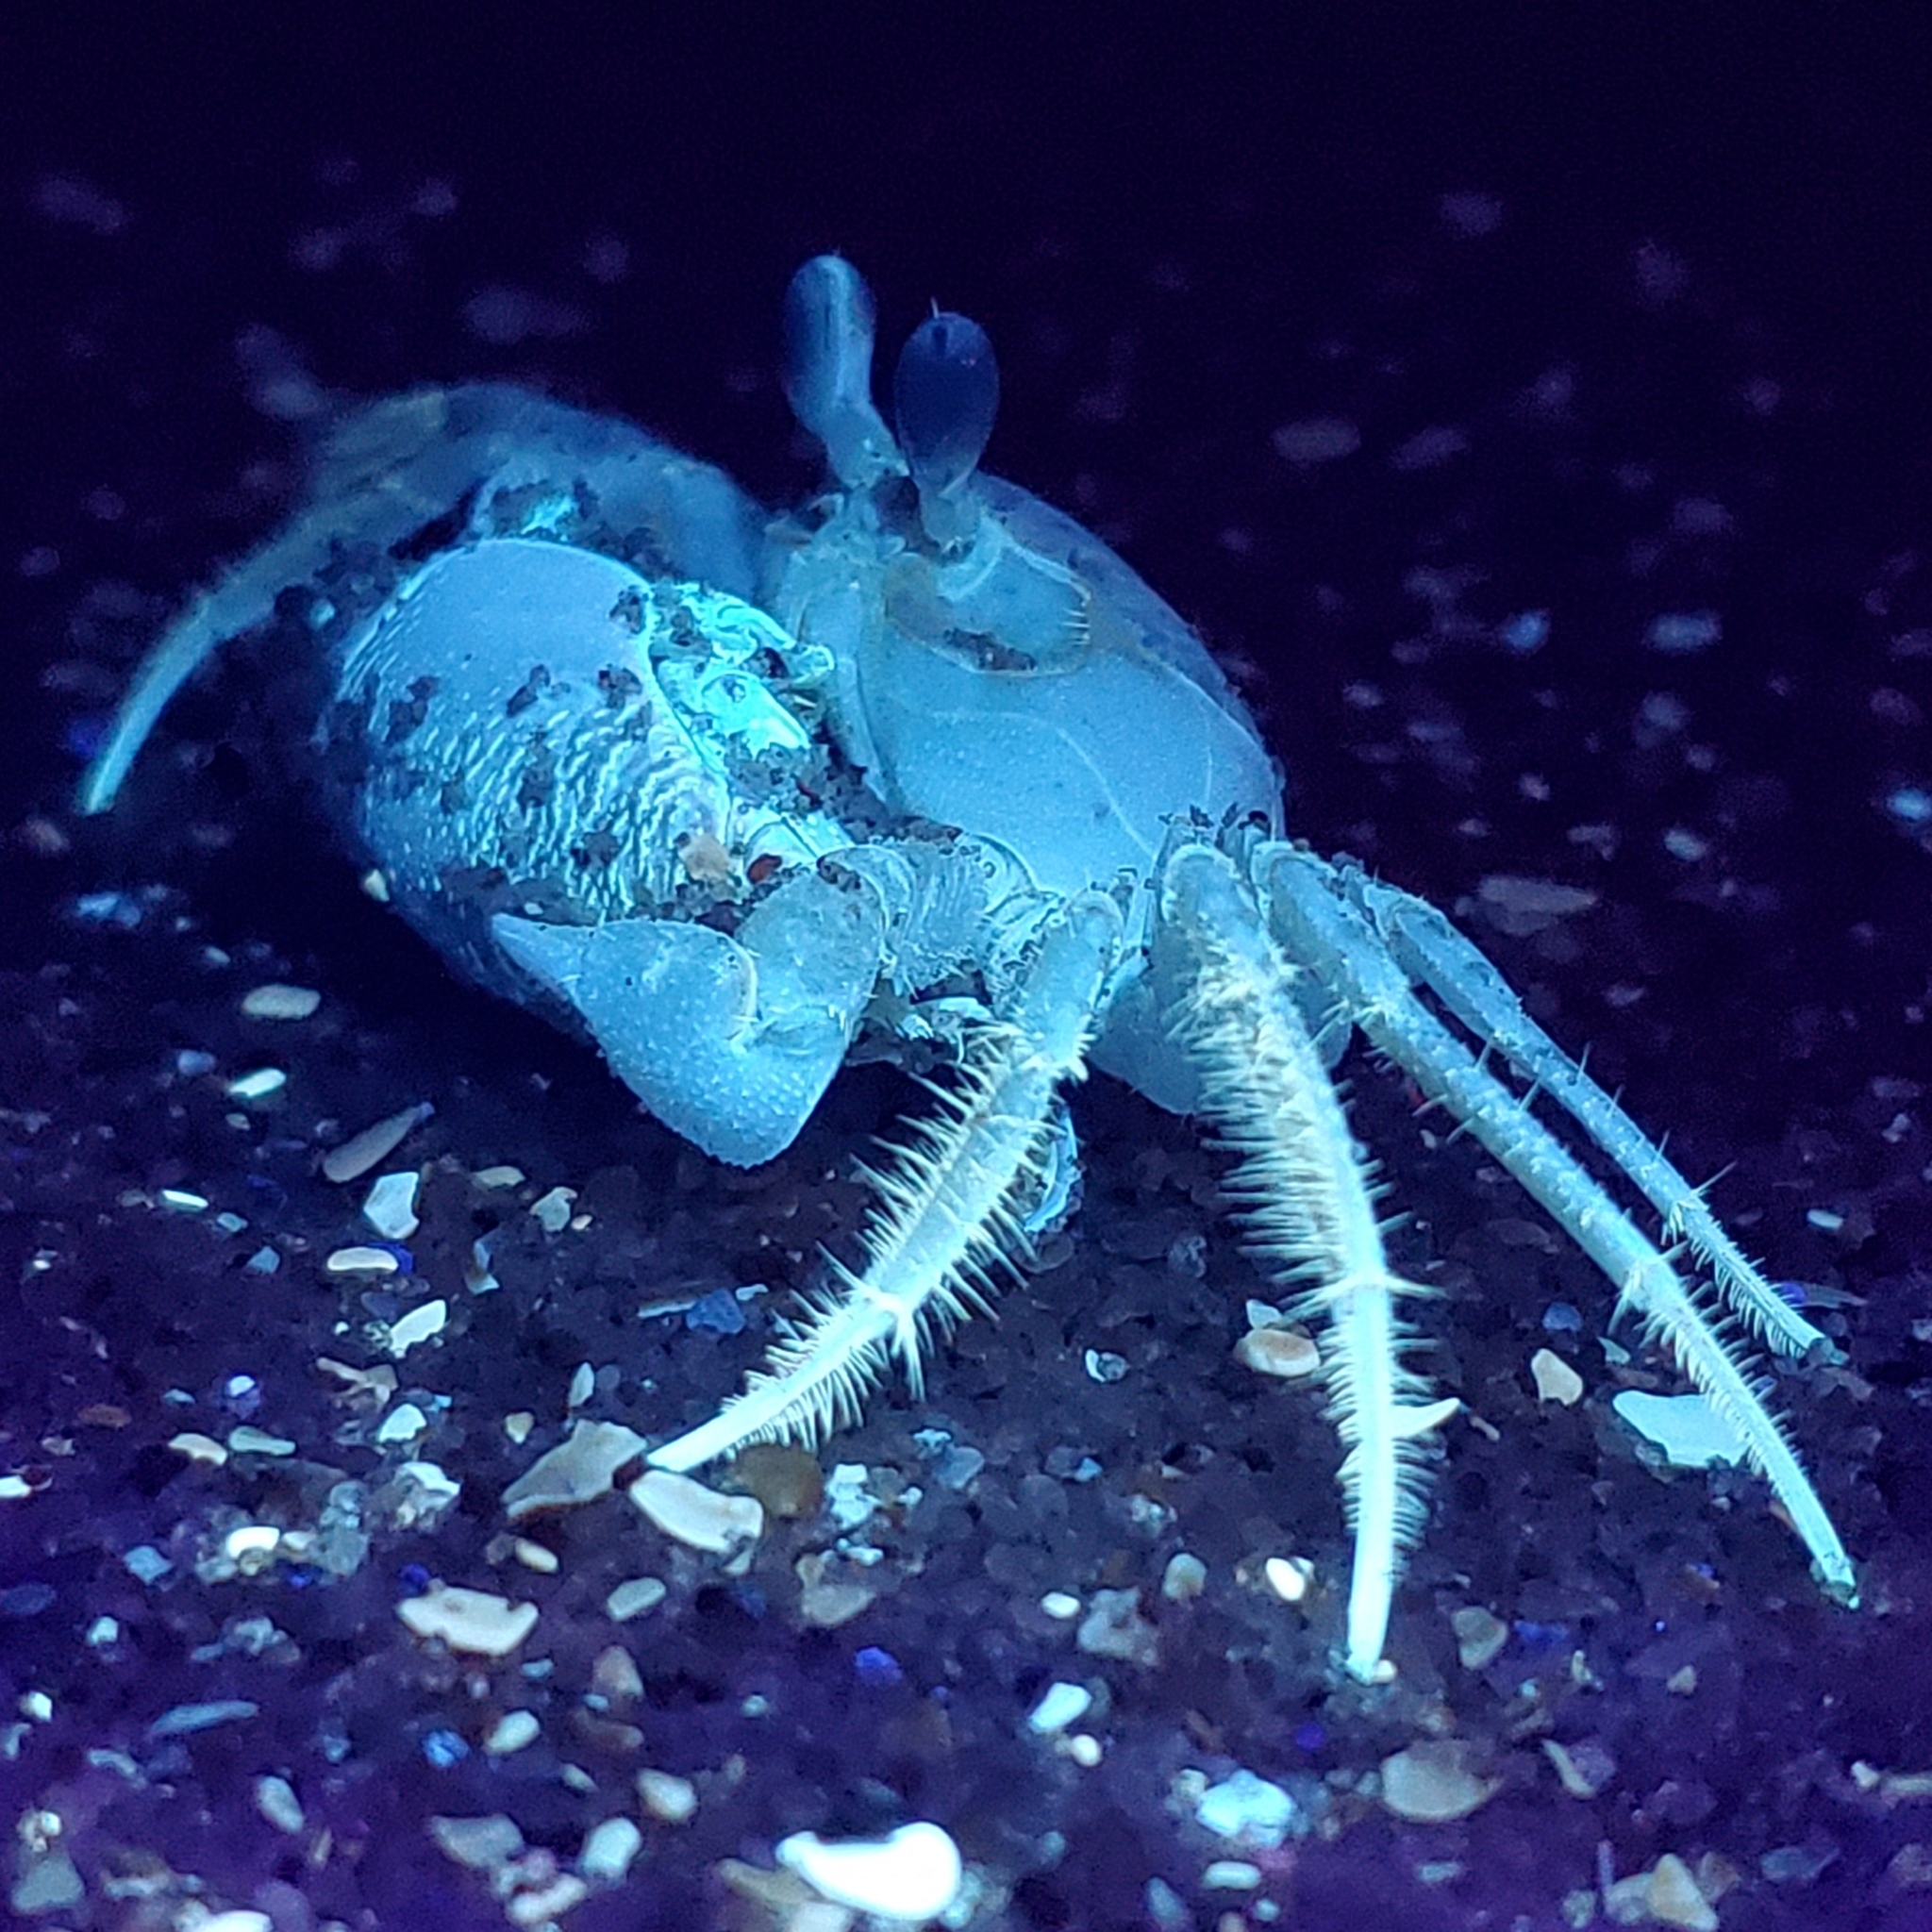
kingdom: Animalia
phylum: Arthropoda
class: Malacostraca
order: Decapoda
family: Ocypodidae
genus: Ocypode
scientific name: Ocypode quadrata
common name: Ghost crab
